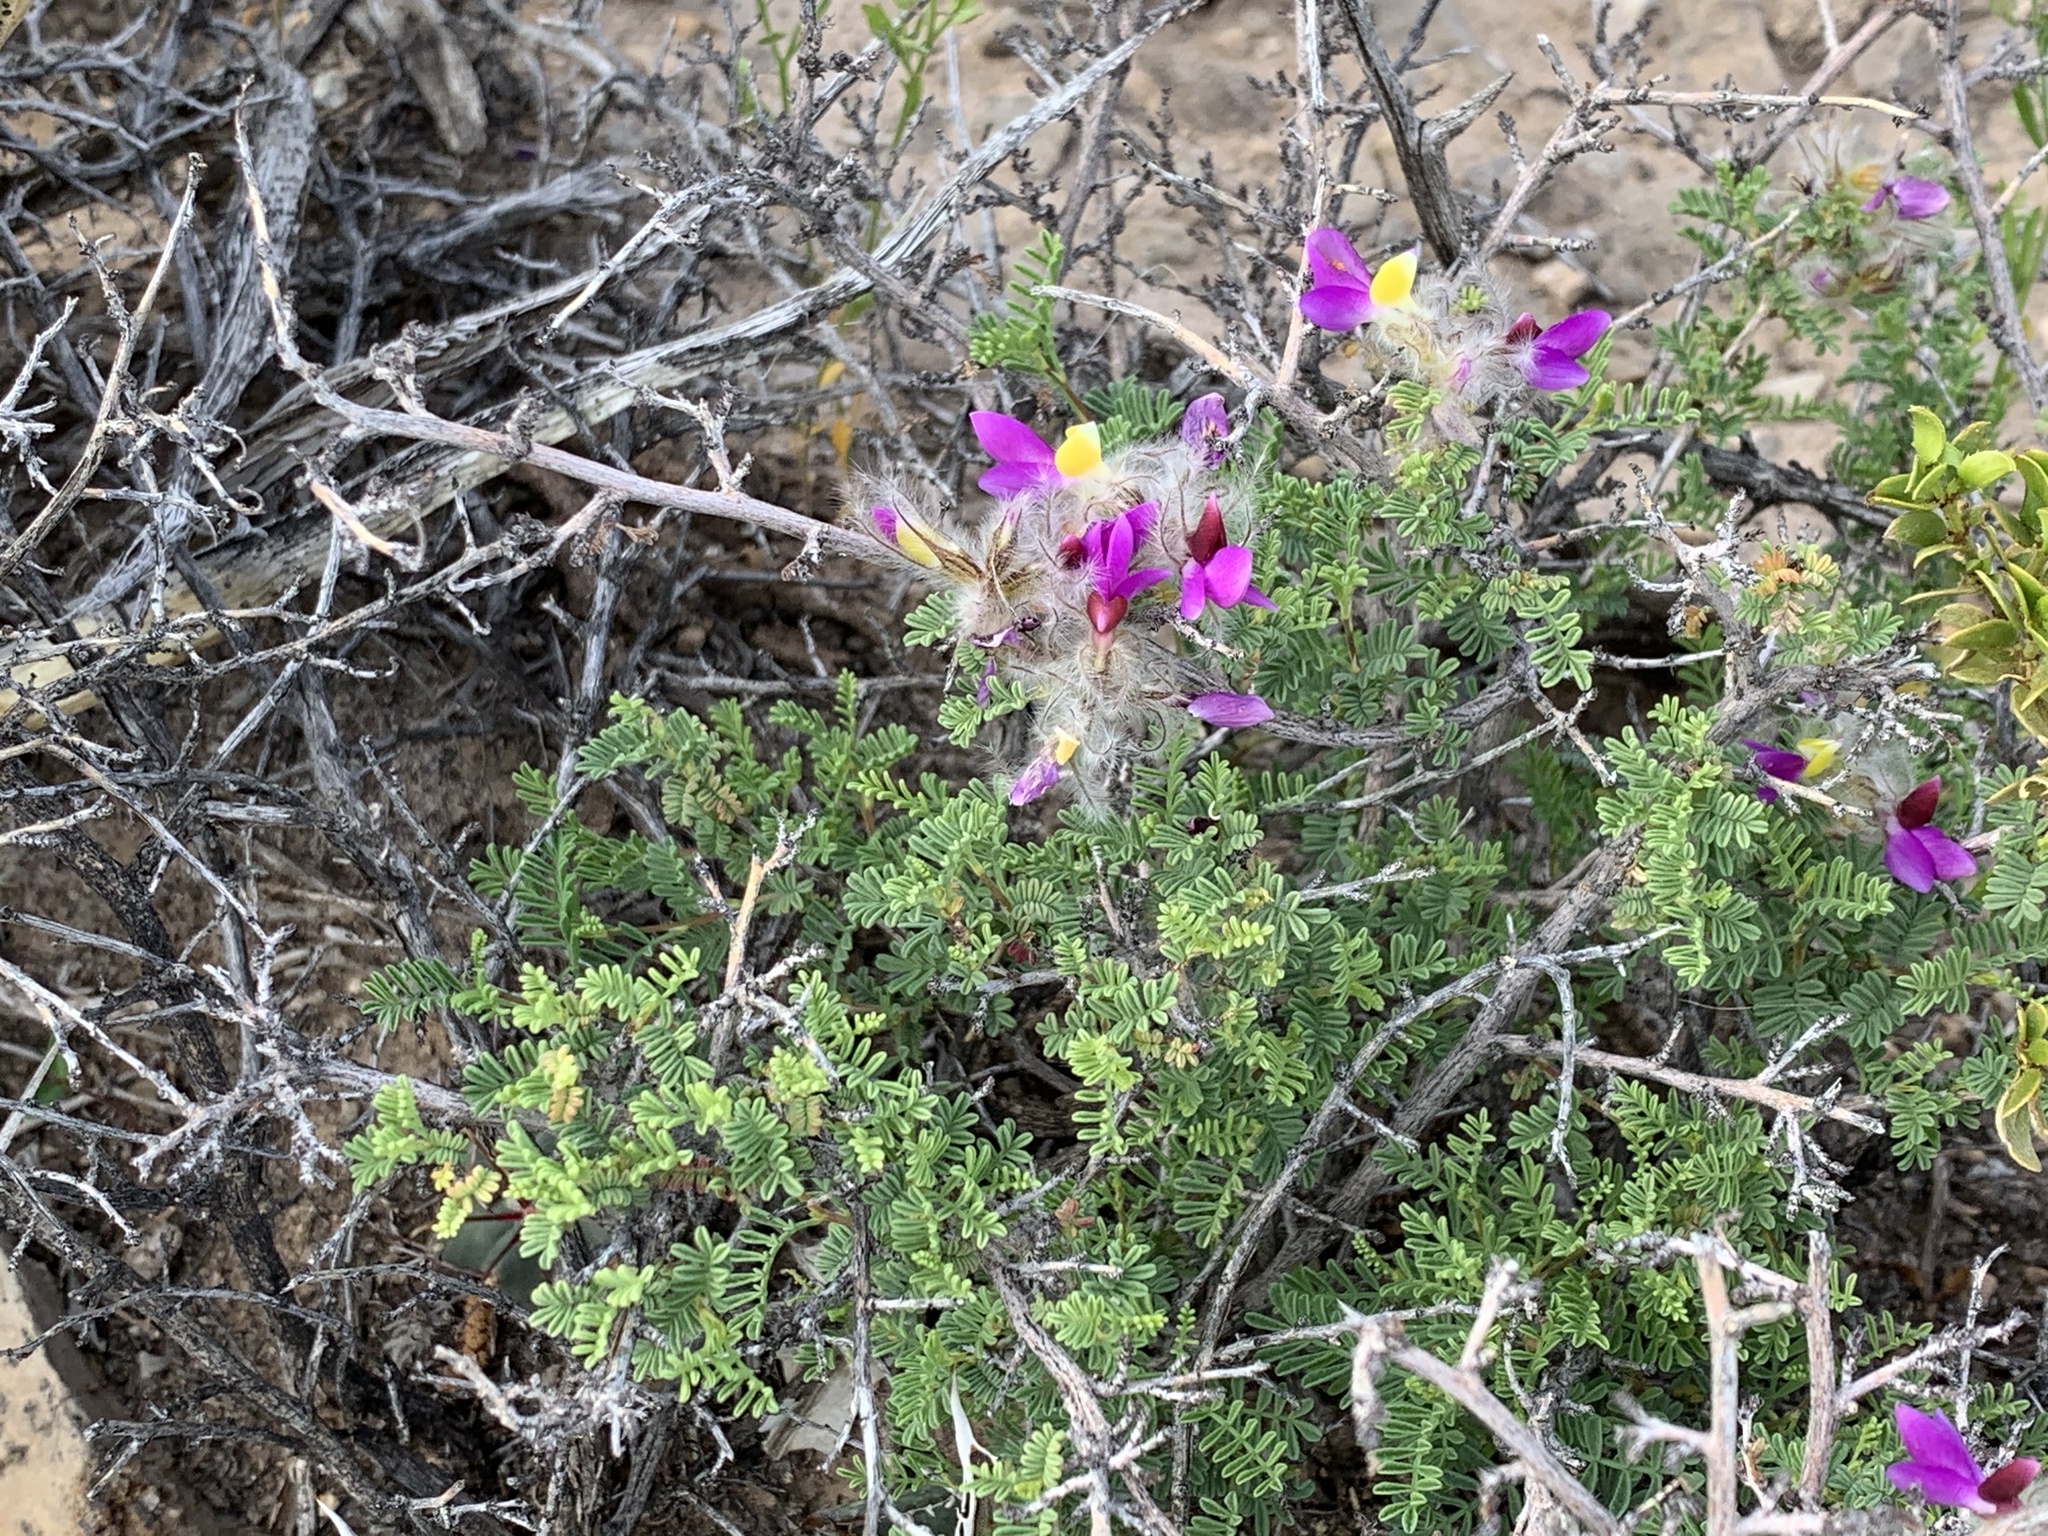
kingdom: Plantae
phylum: Tracheophyta
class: Magnoliopsida
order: Fabales
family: Fabaceae
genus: Dalea
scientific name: Dalea formosa
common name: Feather-plume dalea
